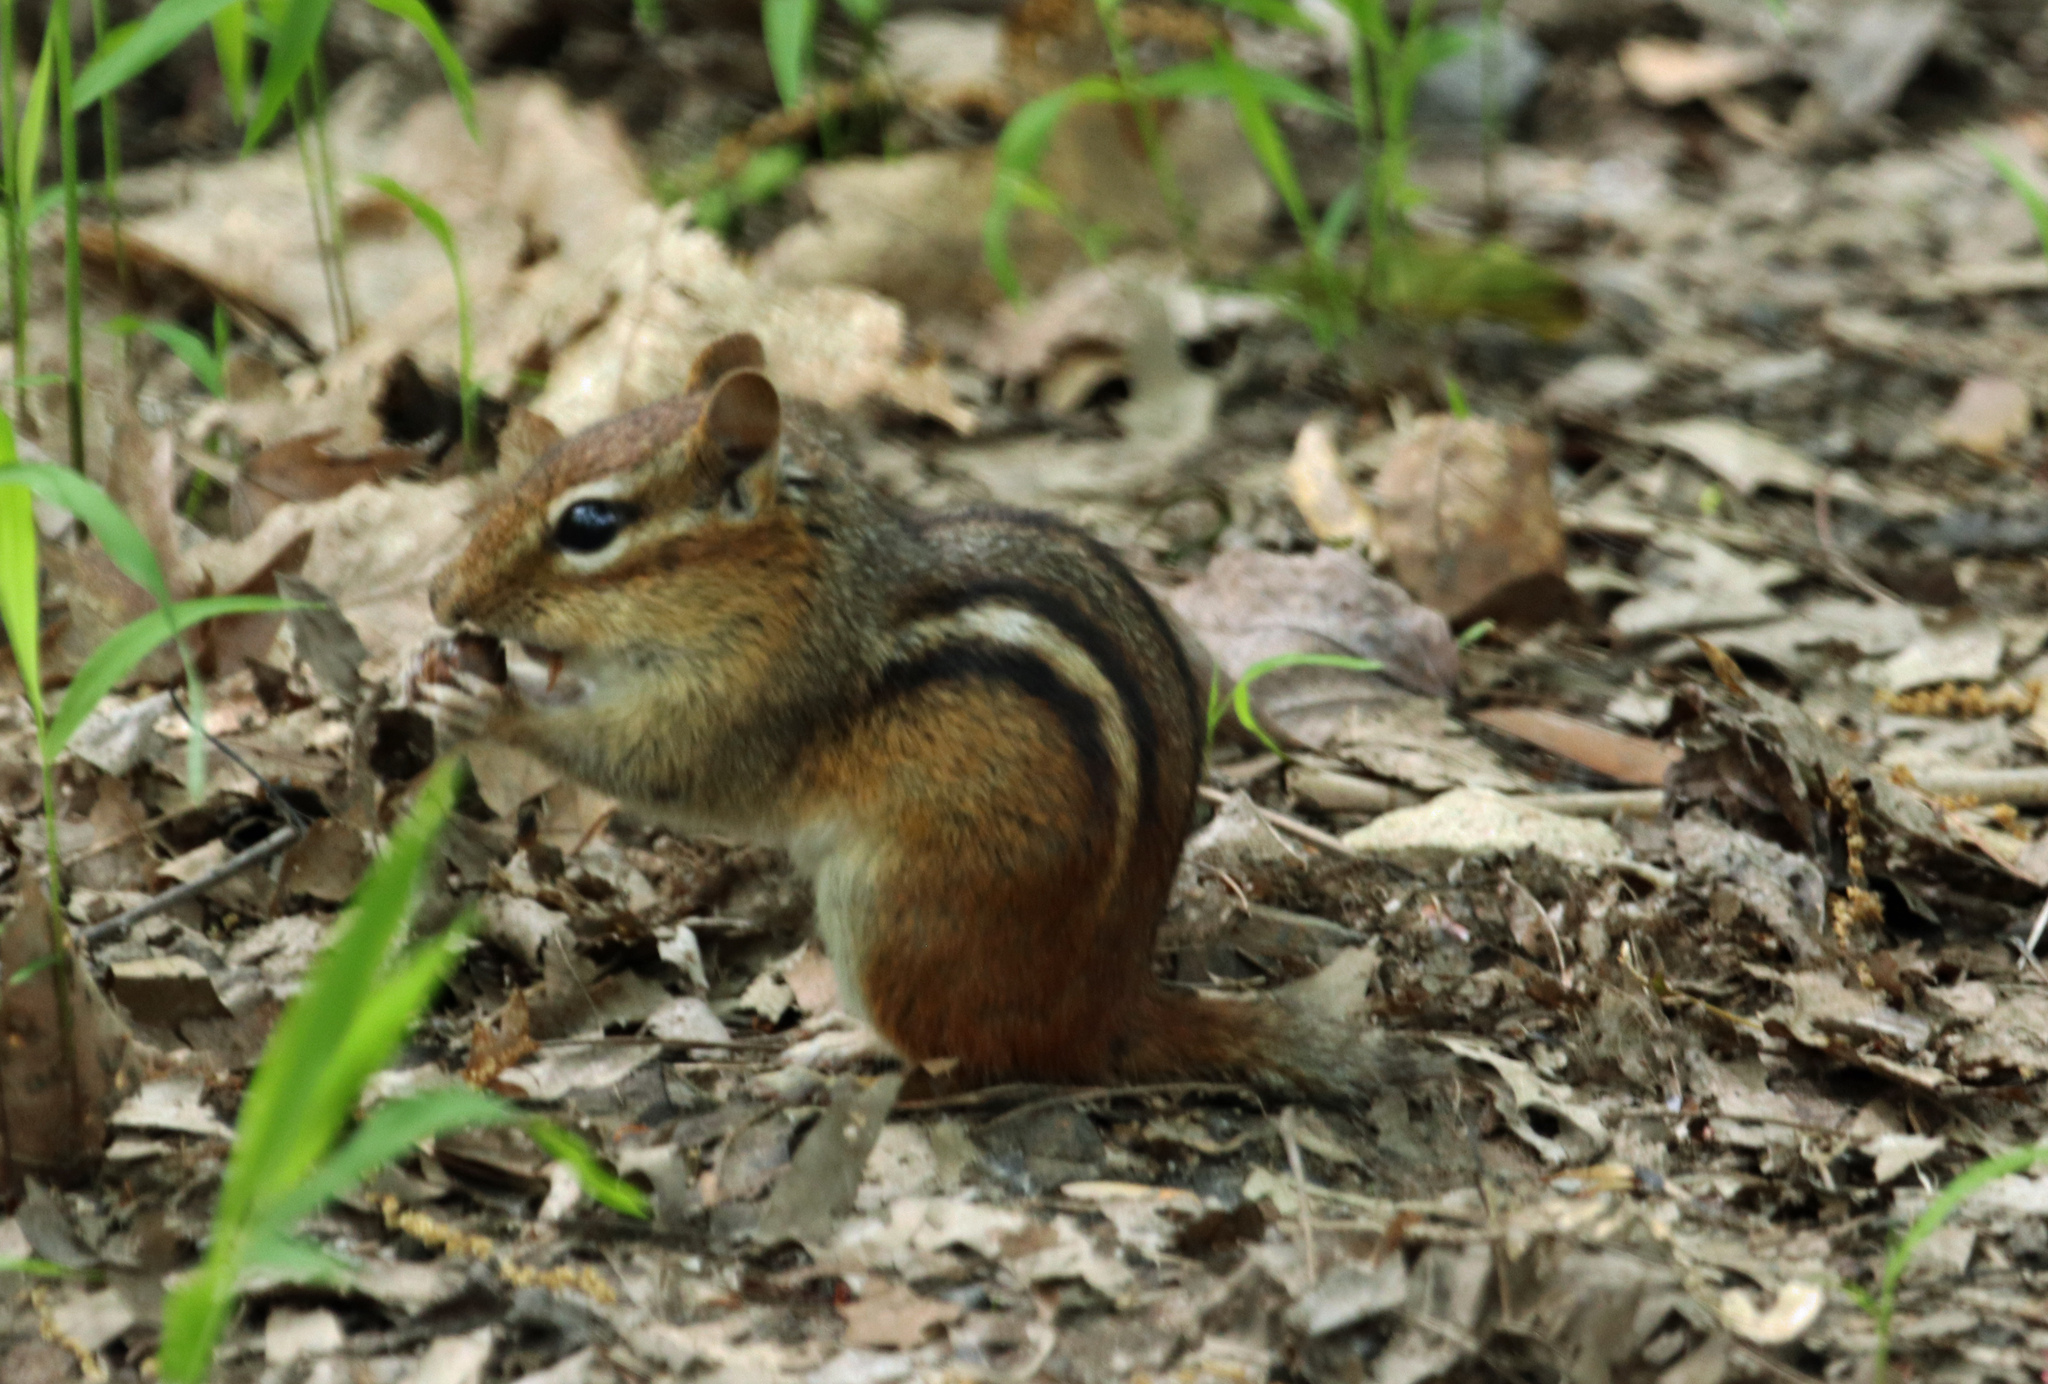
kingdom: Animalia
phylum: Chordata
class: Mammalia
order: Rodentia
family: Sciuridae
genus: Tamias
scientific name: Tamias striatus
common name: Eastern chipmunk
